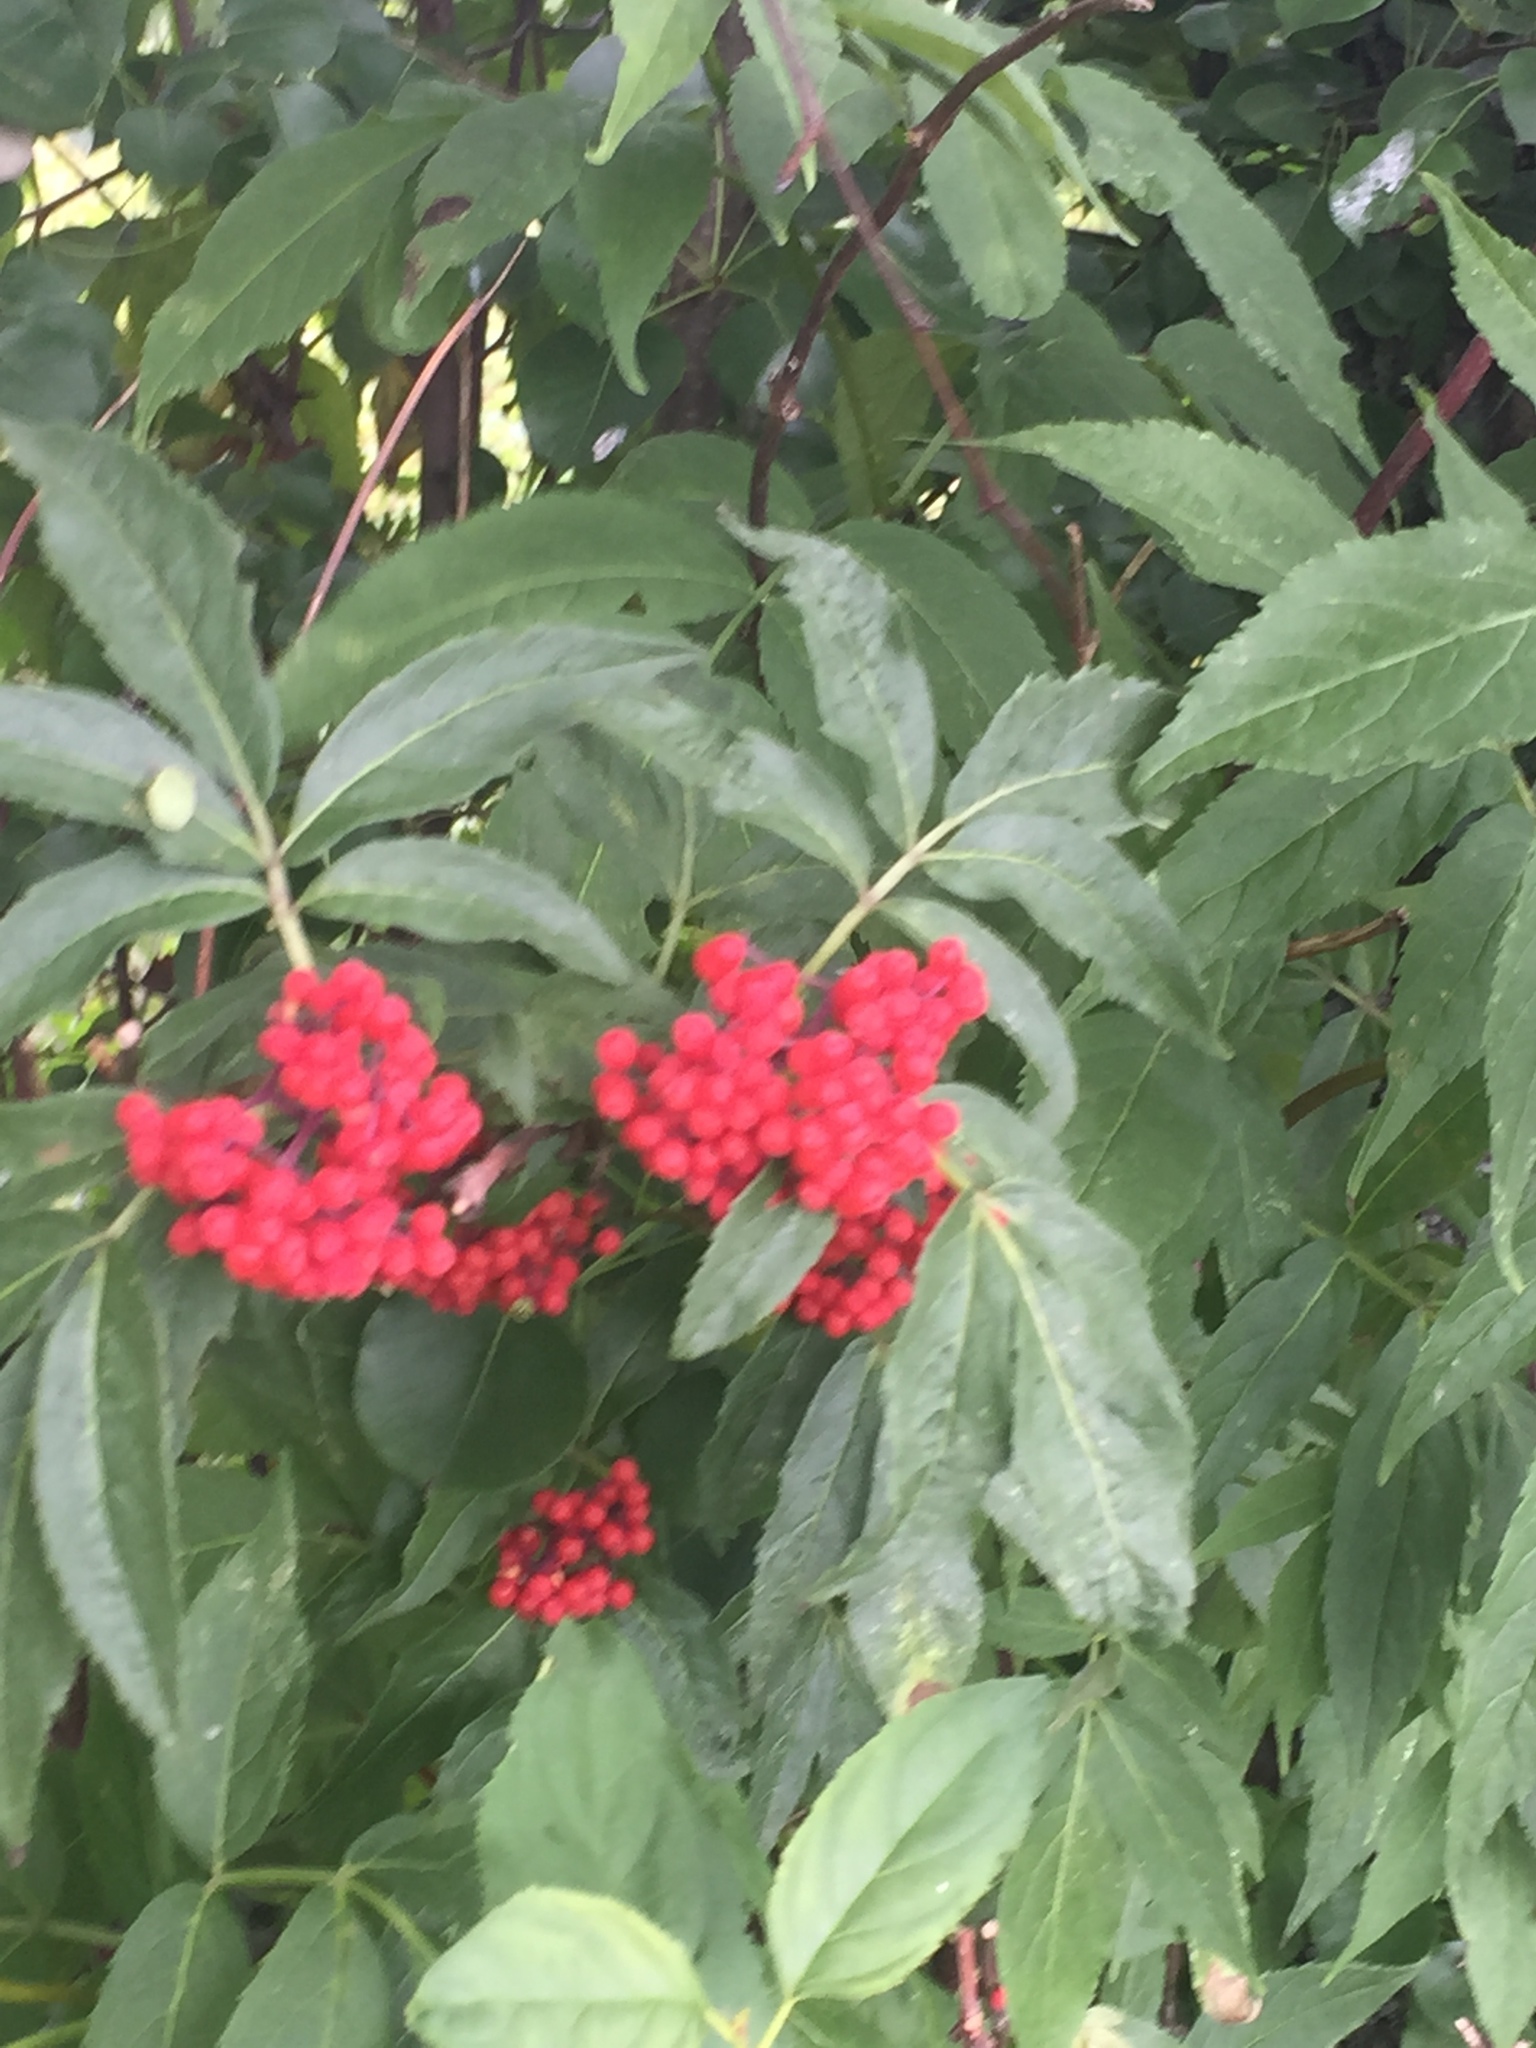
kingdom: Plantae
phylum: Tracheophyta
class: Magnoliopsida
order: Dipsacales
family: Viburnaceae
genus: Sambucus
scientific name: Sambucus racemosa
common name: Red-berried elder
